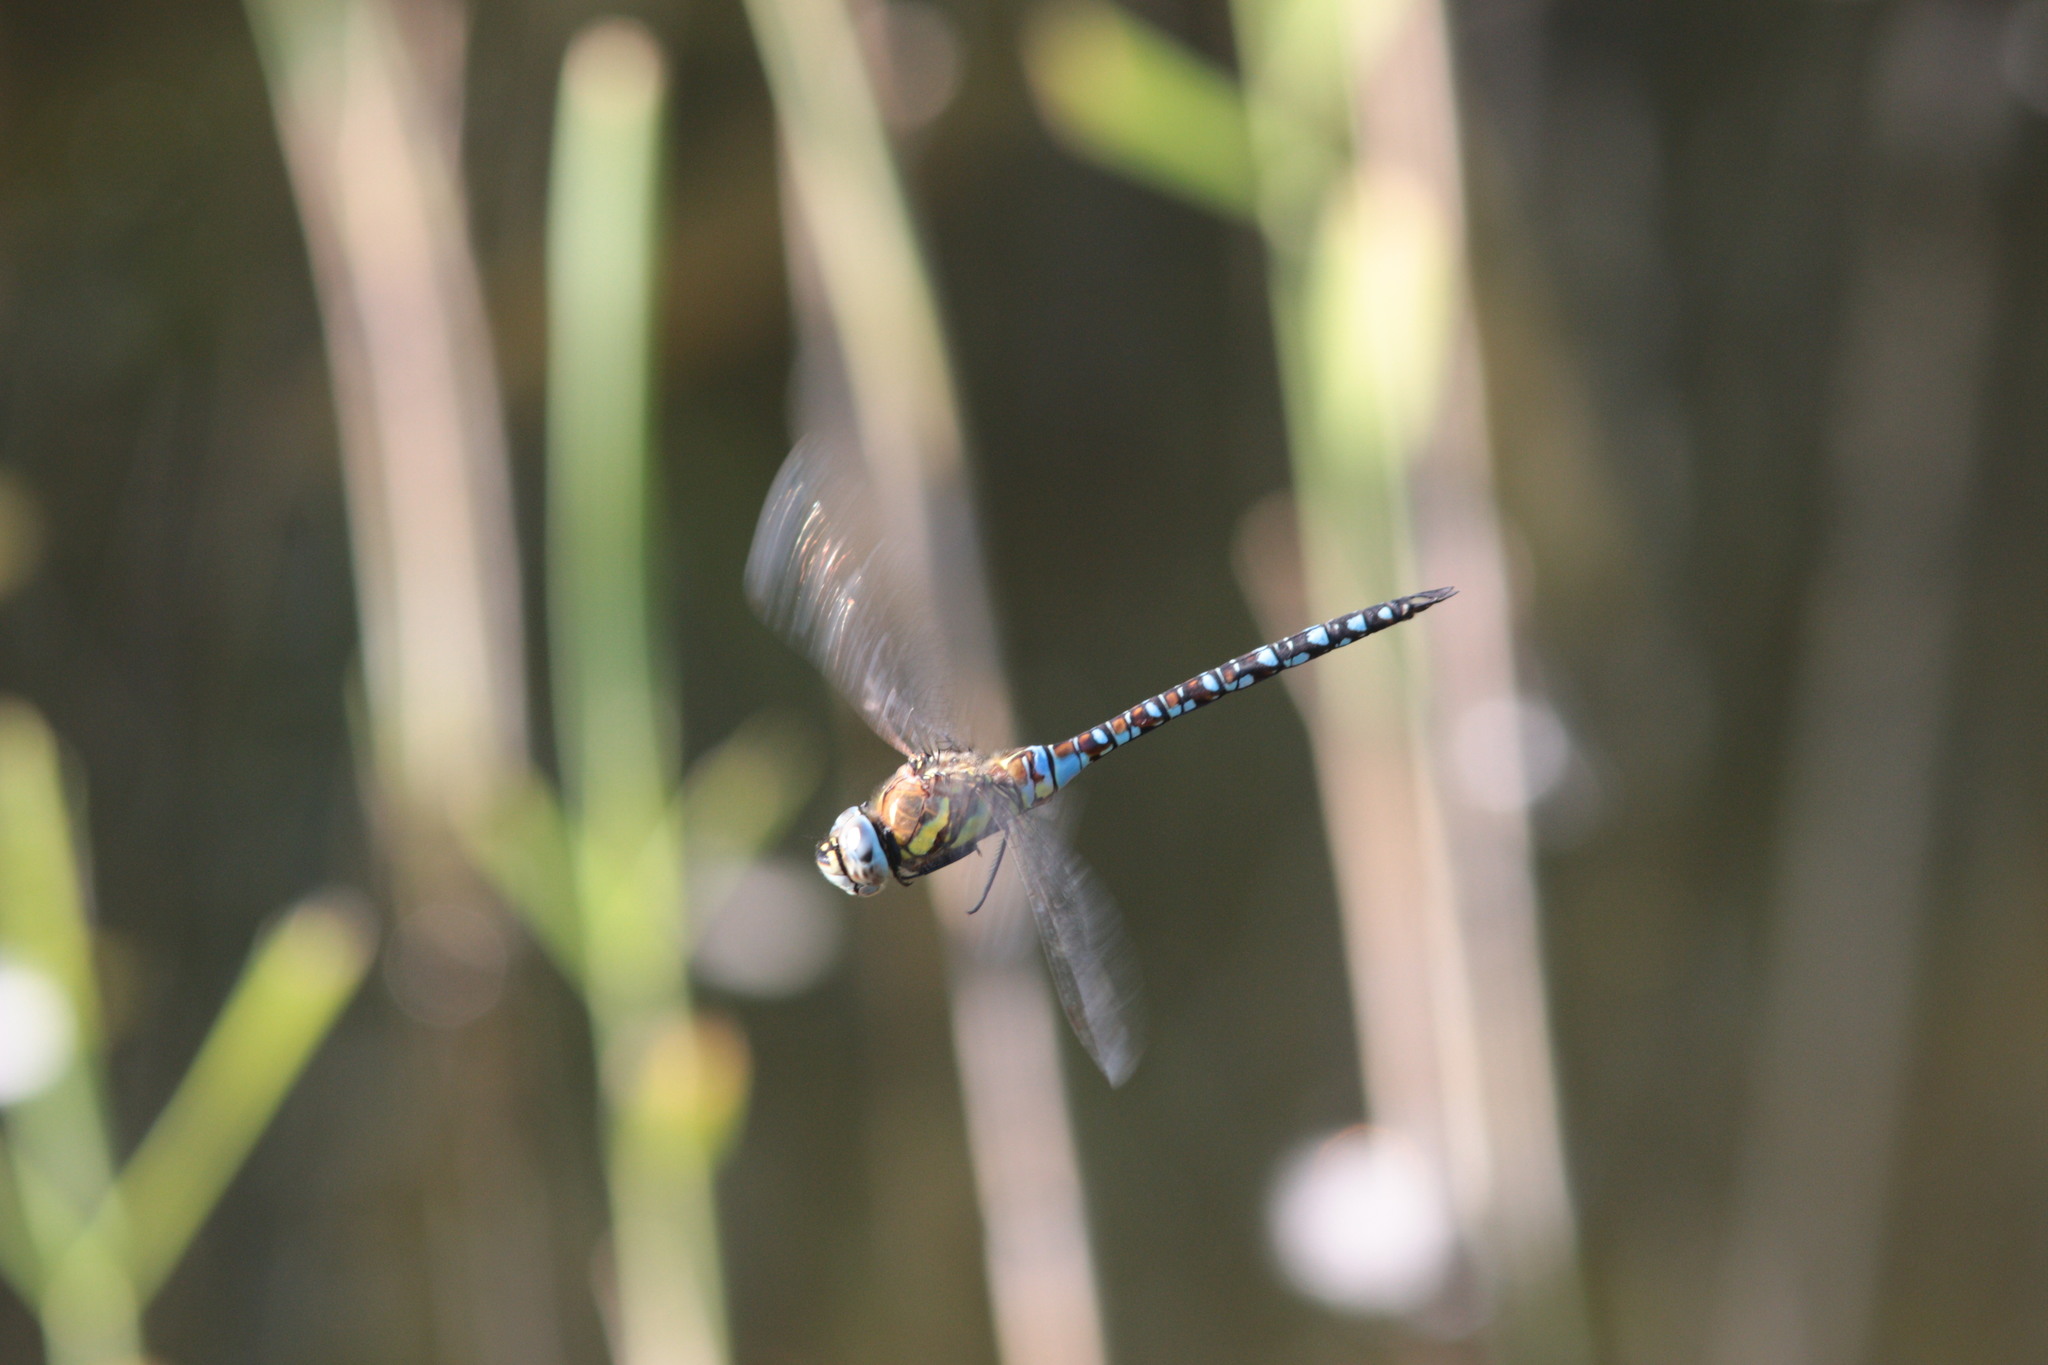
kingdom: Animalia
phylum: Arthropoda
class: Insecta
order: Odonata
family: Aeshnidae
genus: Aeshna
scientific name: Aeshna mixta
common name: Migrant hawker
